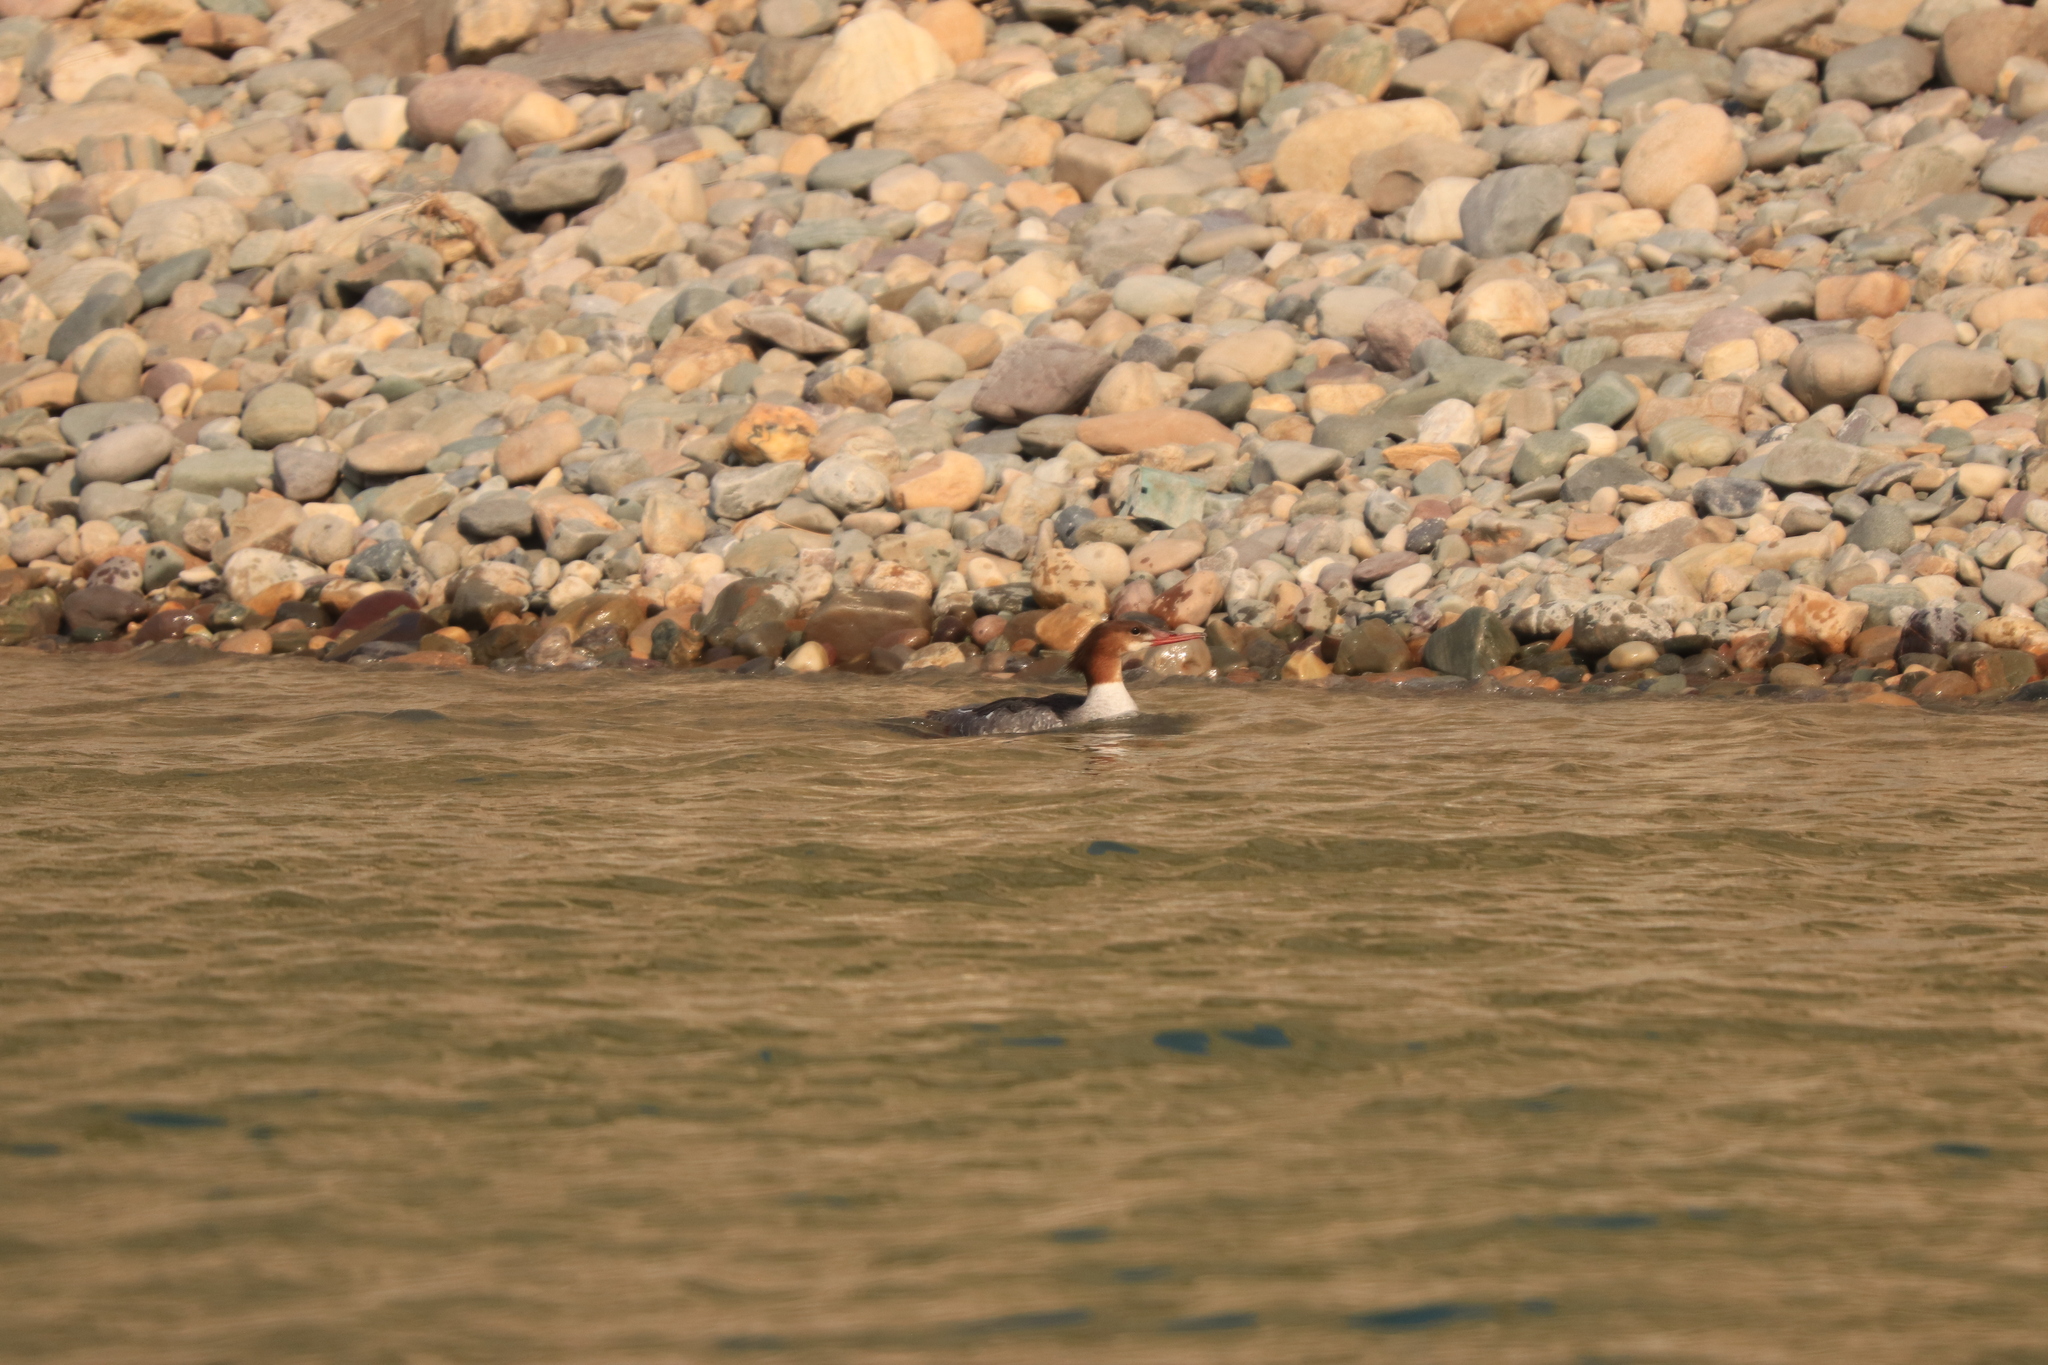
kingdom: Animalia
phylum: Chordata
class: Aves
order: Anseriformes
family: Anatidae
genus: Mergus
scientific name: Mergus merganser
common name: Common merganser
